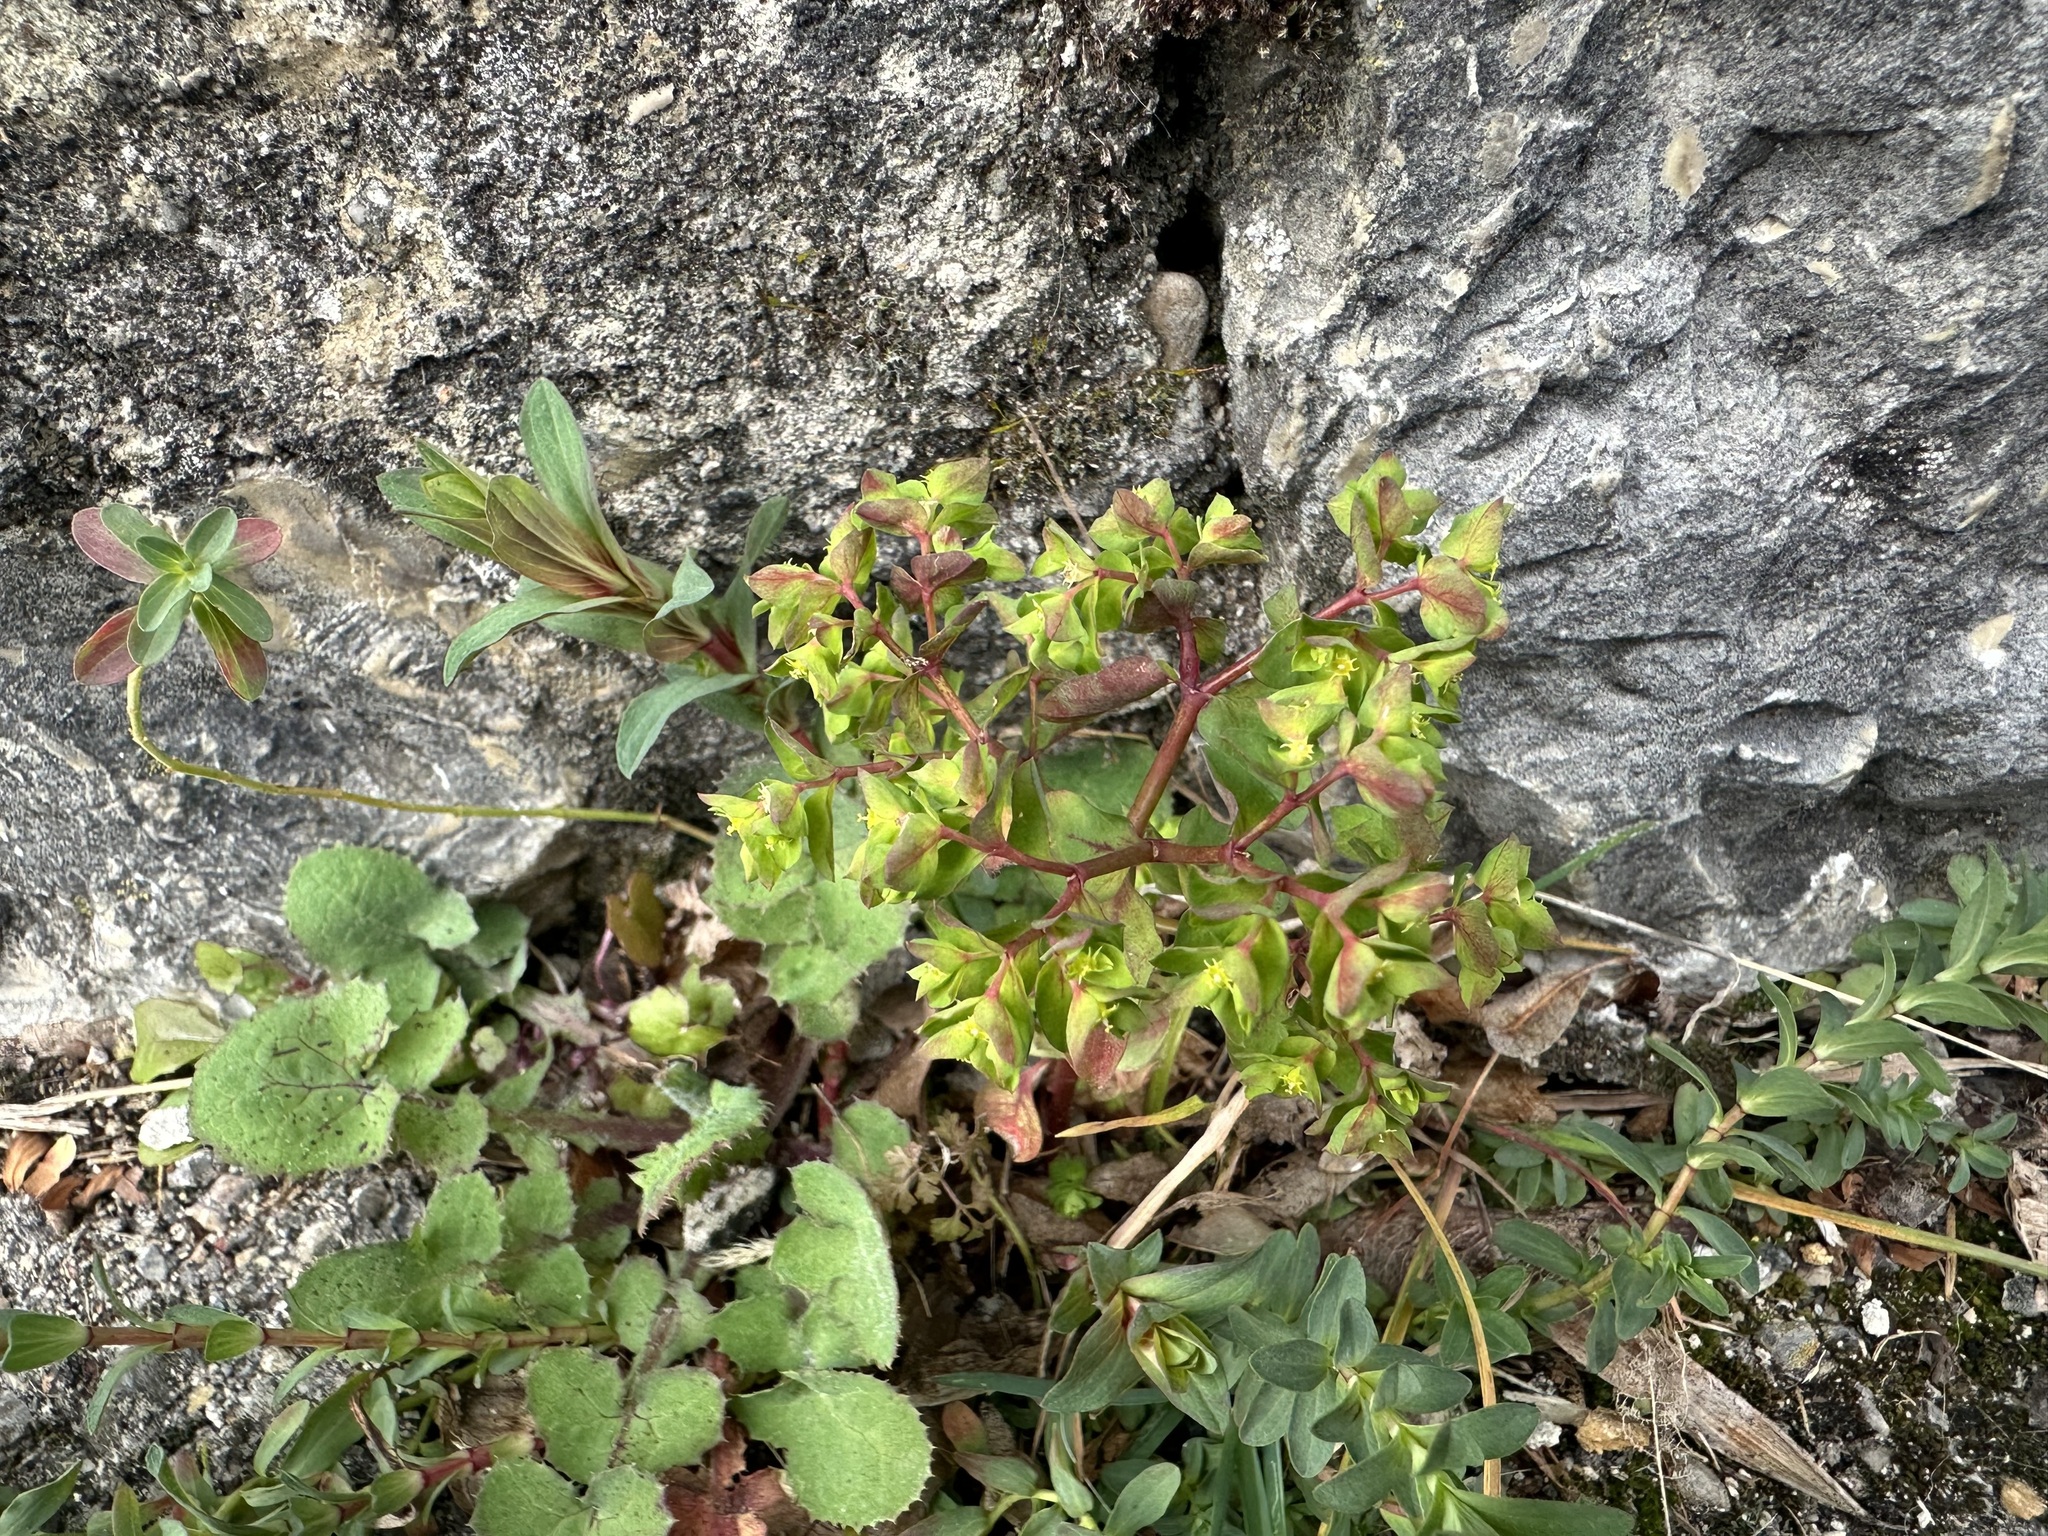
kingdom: Plantae
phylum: Tracheophyta
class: Magnoliopsida
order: Malpighiales
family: Euphorbiaceae
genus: Euphorbia
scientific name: Euphorbia peplus
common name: Petty spurge
